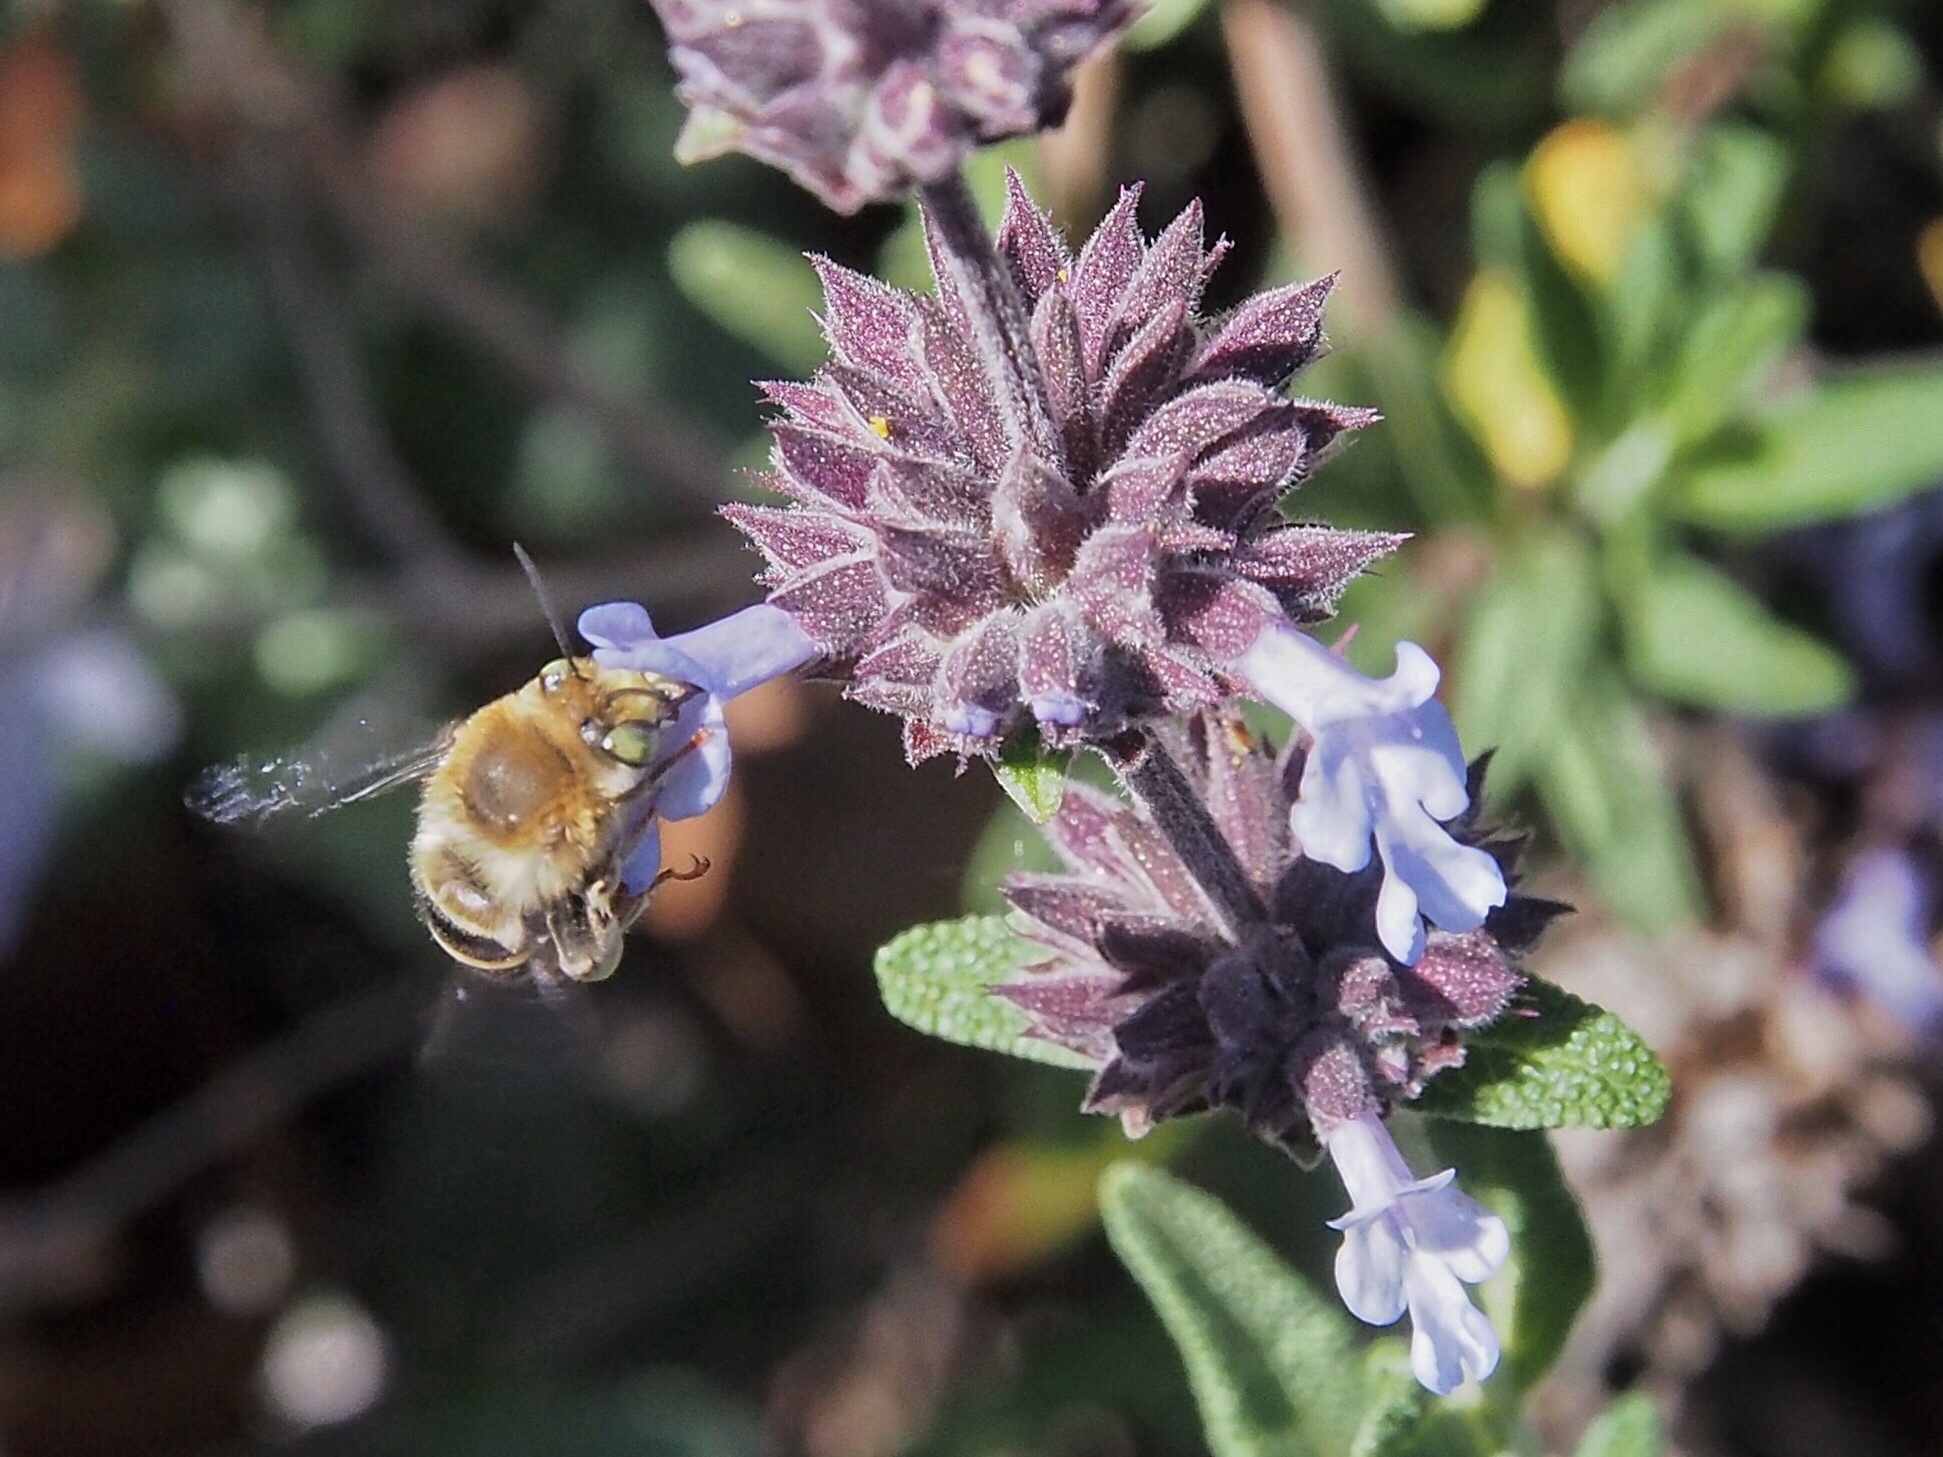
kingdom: Animalia
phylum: Arthropoda
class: Insecta
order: Hymenoptera
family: Apidae
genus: Anthophora
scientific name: Anthophora californica
